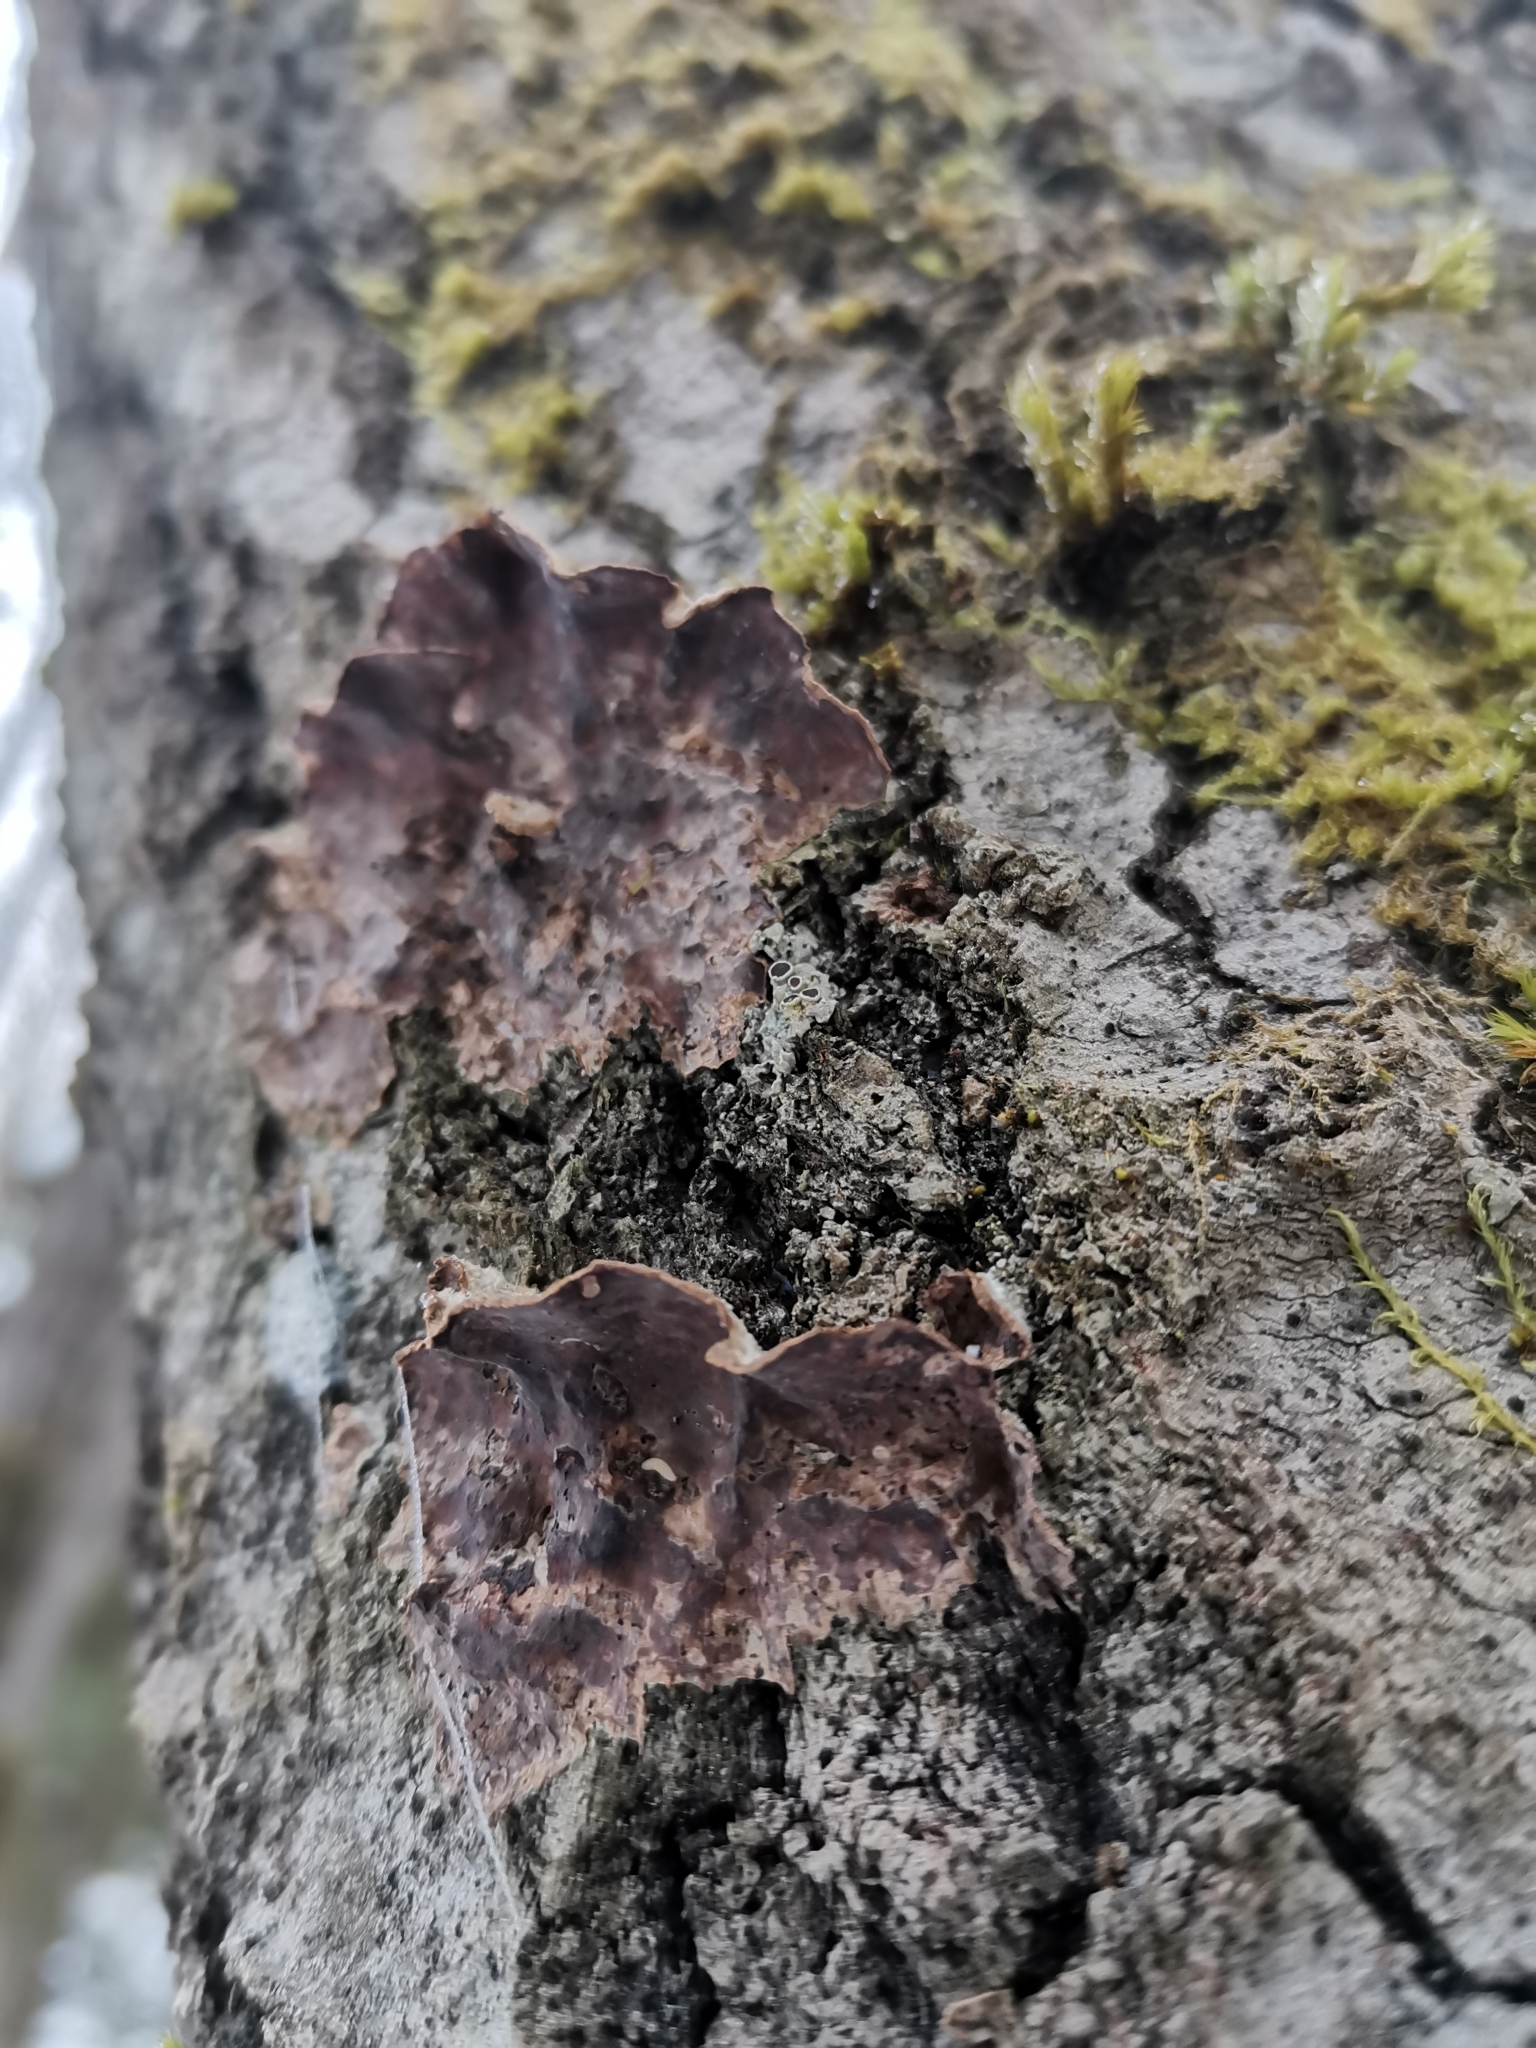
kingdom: Fungi
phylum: Basidiomycota
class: Agaricomycetes
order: Agaricales
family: Cyphellaceae
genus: Chondrostereum
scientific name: Chondrostereum purpureum
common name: Silver leaf disease
